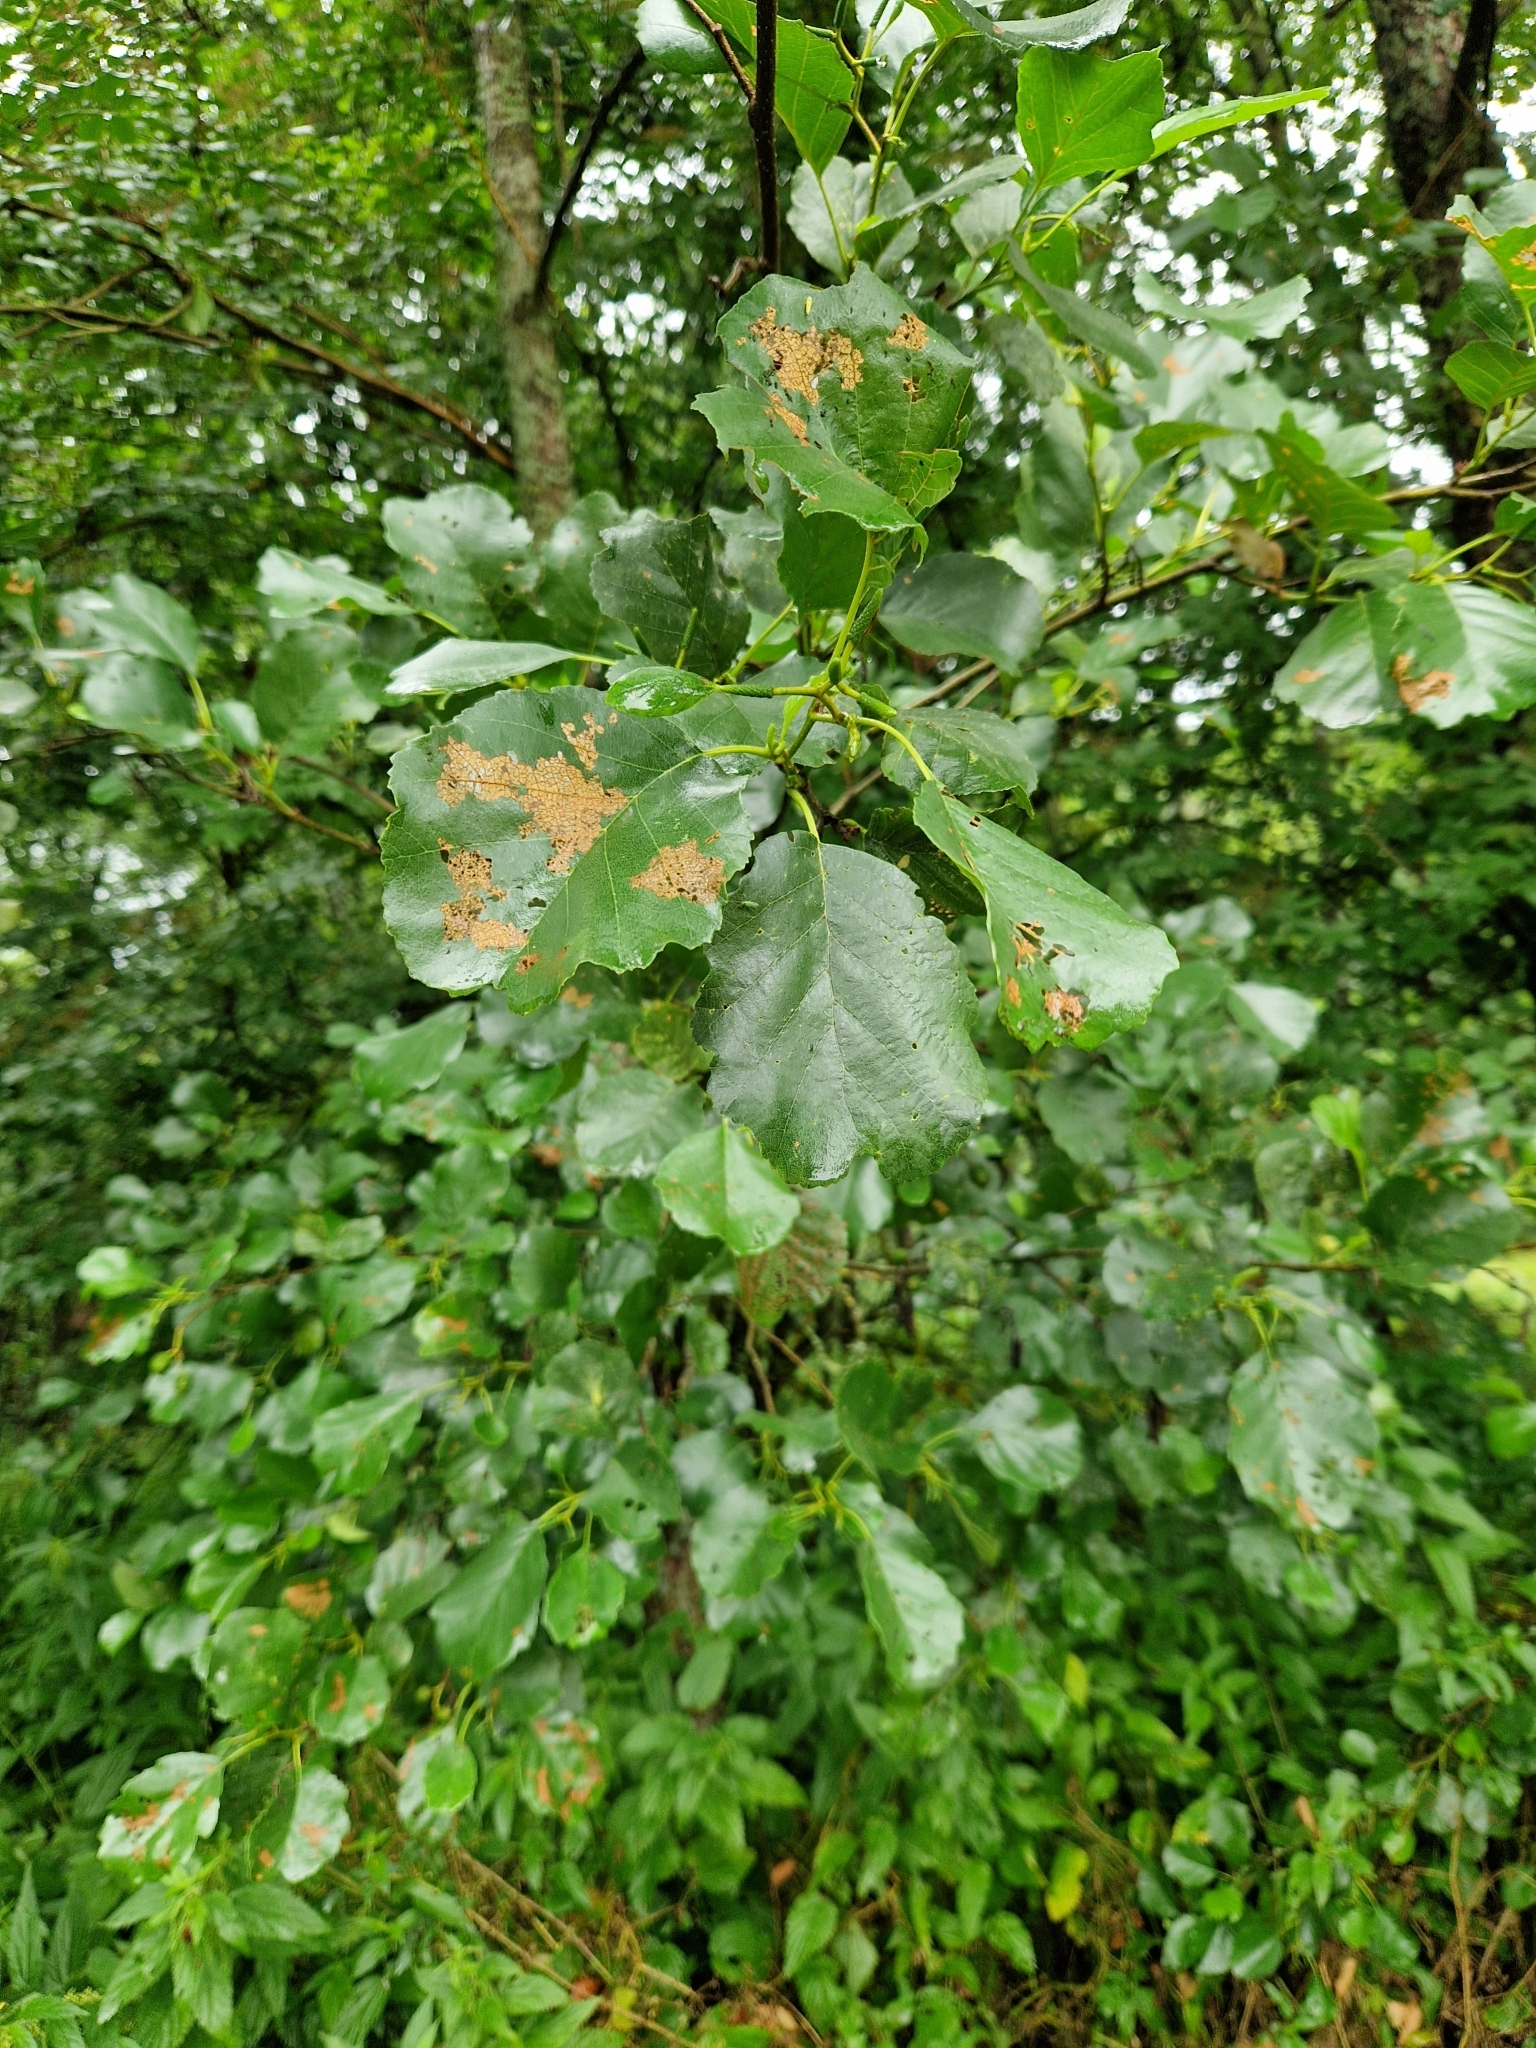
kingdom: Plantae
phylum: Tracheophyta
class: Magnoliopsida
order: Fagales
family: Betulaceae
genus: Alnus
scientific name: Alnus glutinosa
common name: Black alder
